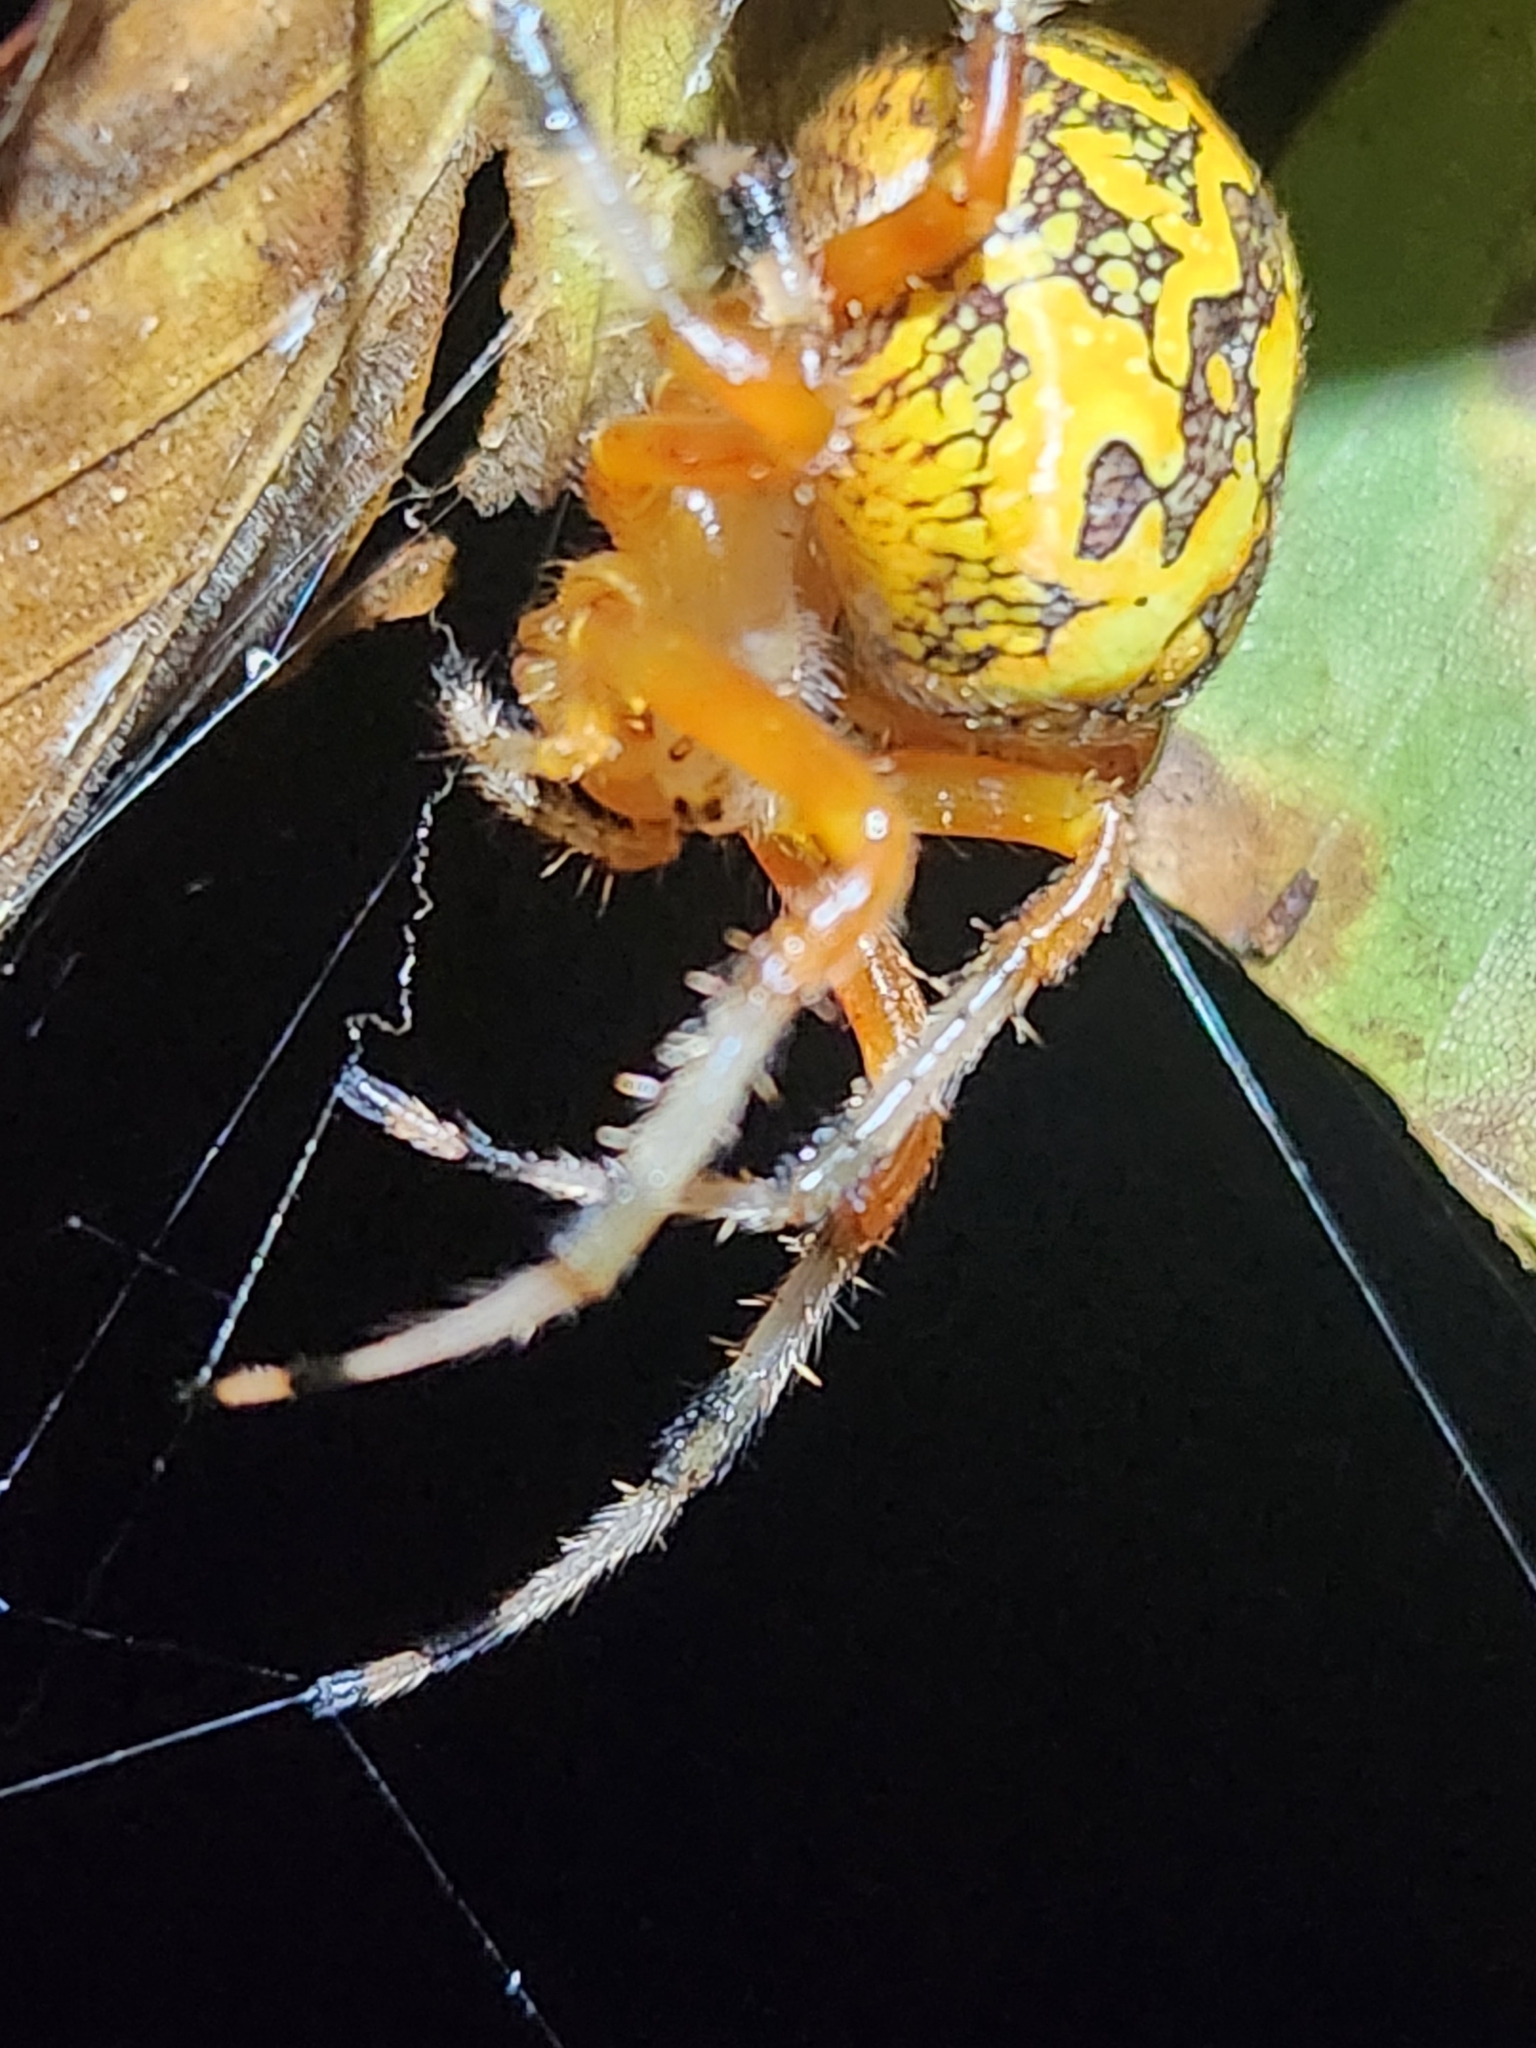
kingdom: Animalia
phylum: Arthropoda
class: Arachnida
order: Araneae
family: Araneidae
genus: Araneus
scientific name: Araneus marmoreus
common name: Marbled orbweaver
